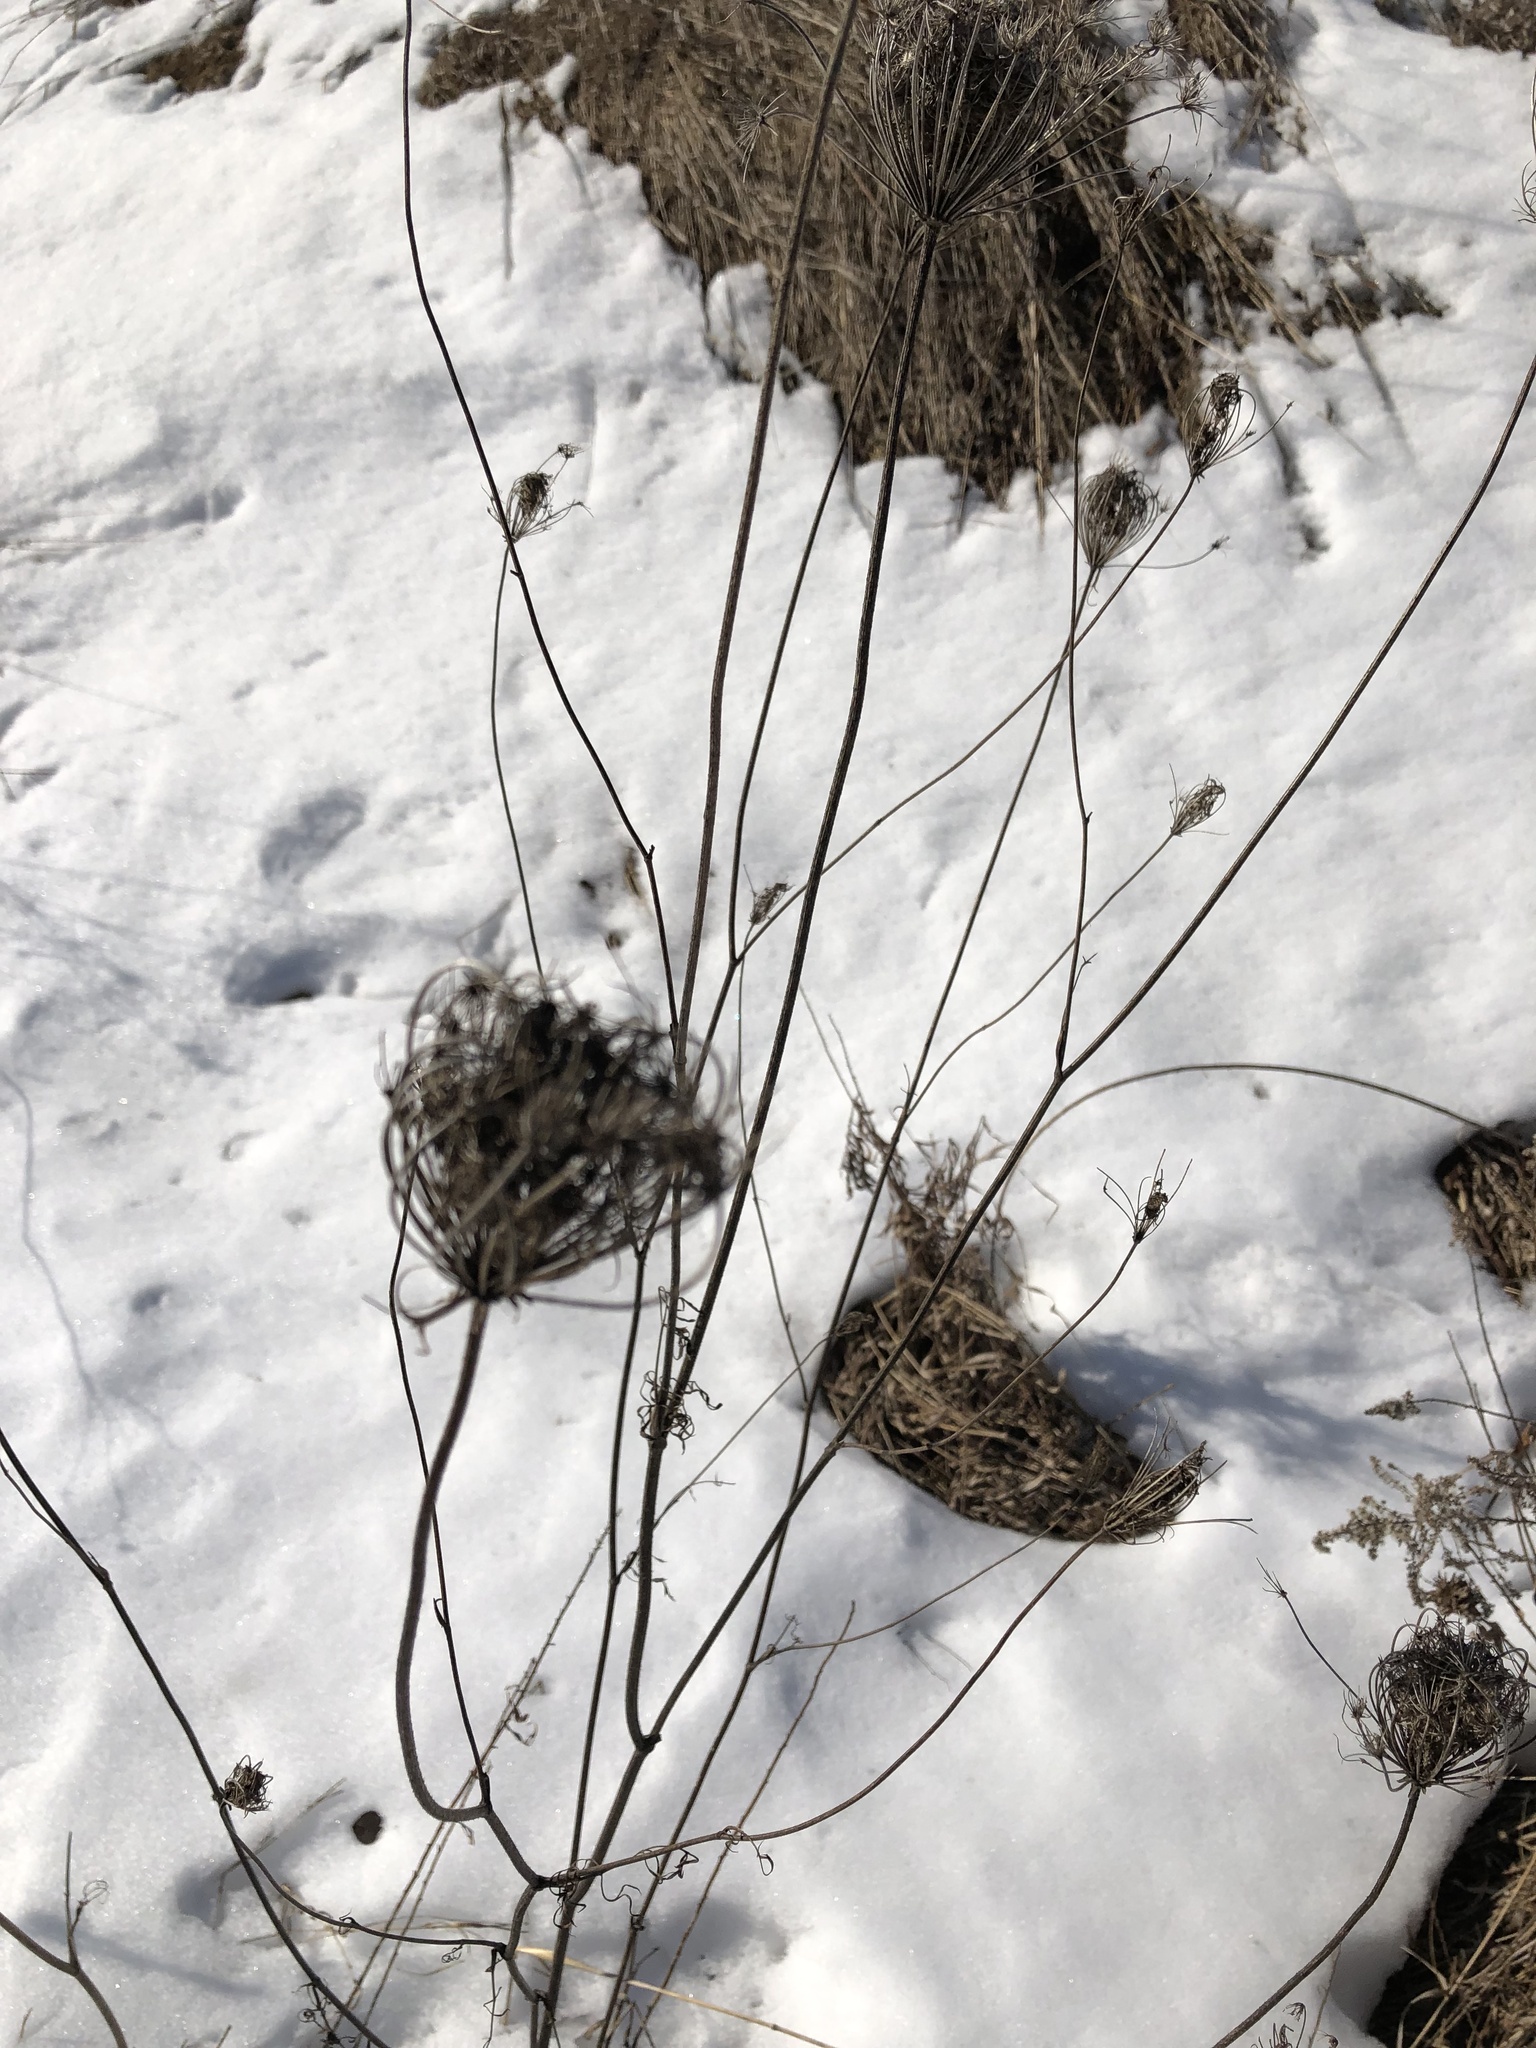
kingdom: Plantae
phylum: Tracheophyta
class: Magnoliopsida
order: Apiales
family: Apiaceae
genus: Daucus
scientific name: Daucus carota
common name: Wild carrot
